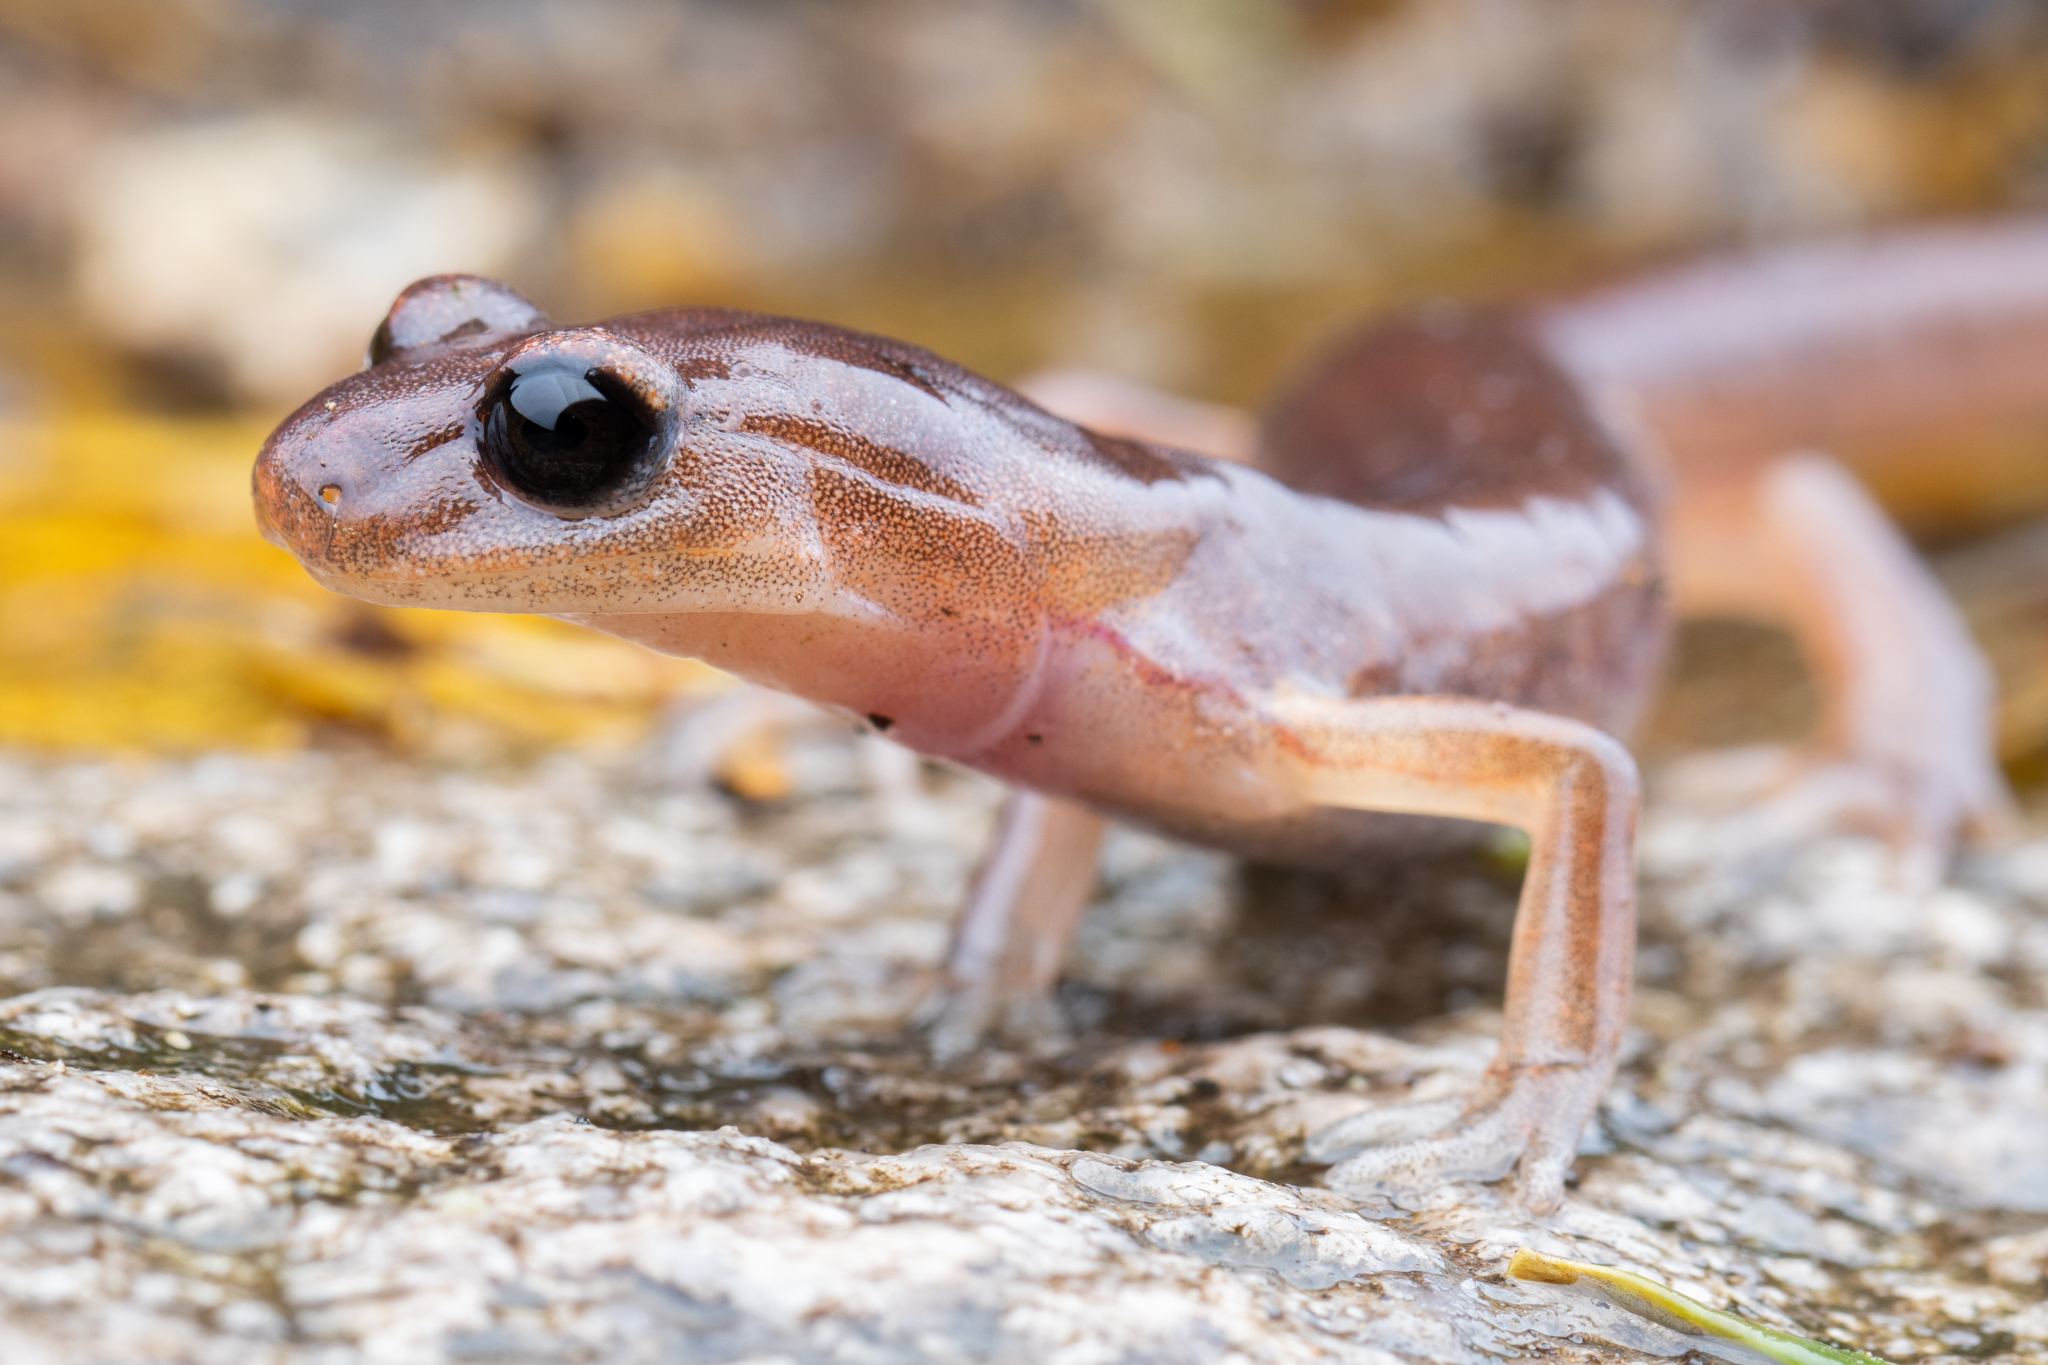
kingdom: Animalia
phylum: Chordata
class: Amphibia
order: Caudata
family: Plethodontidae
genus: Ensatina
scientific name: Ensatina eschscholtzii
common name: Ensatina
